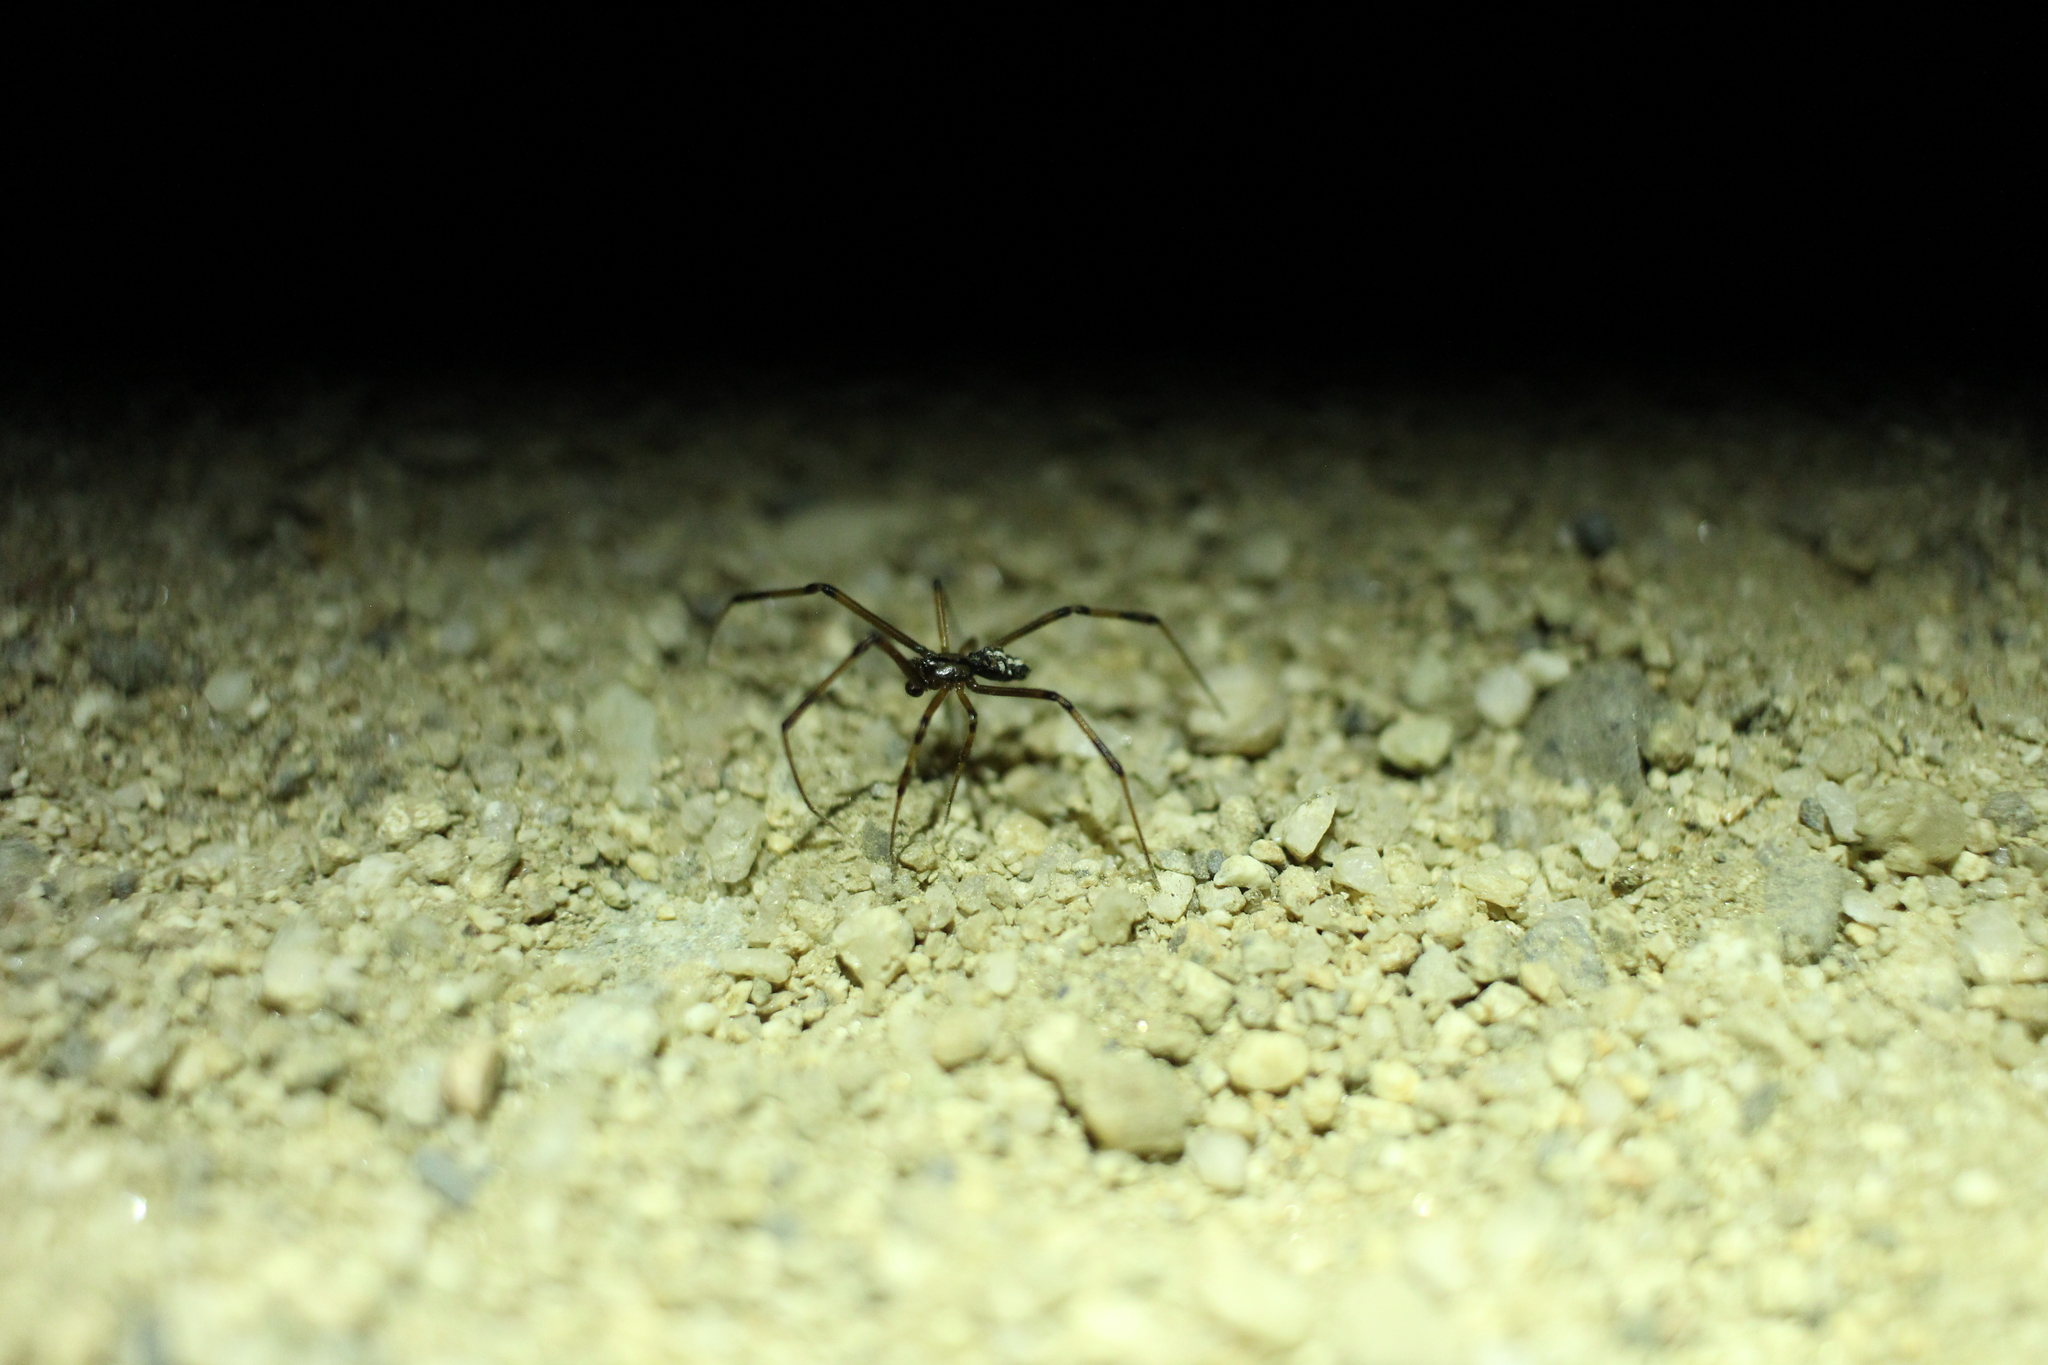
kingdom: Animalia
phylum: Arthropoda
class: Arachnida
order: Araneae
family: Theridiidae
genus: Latrodectus
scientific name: Latrodectus hesperus
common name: Western black widow
